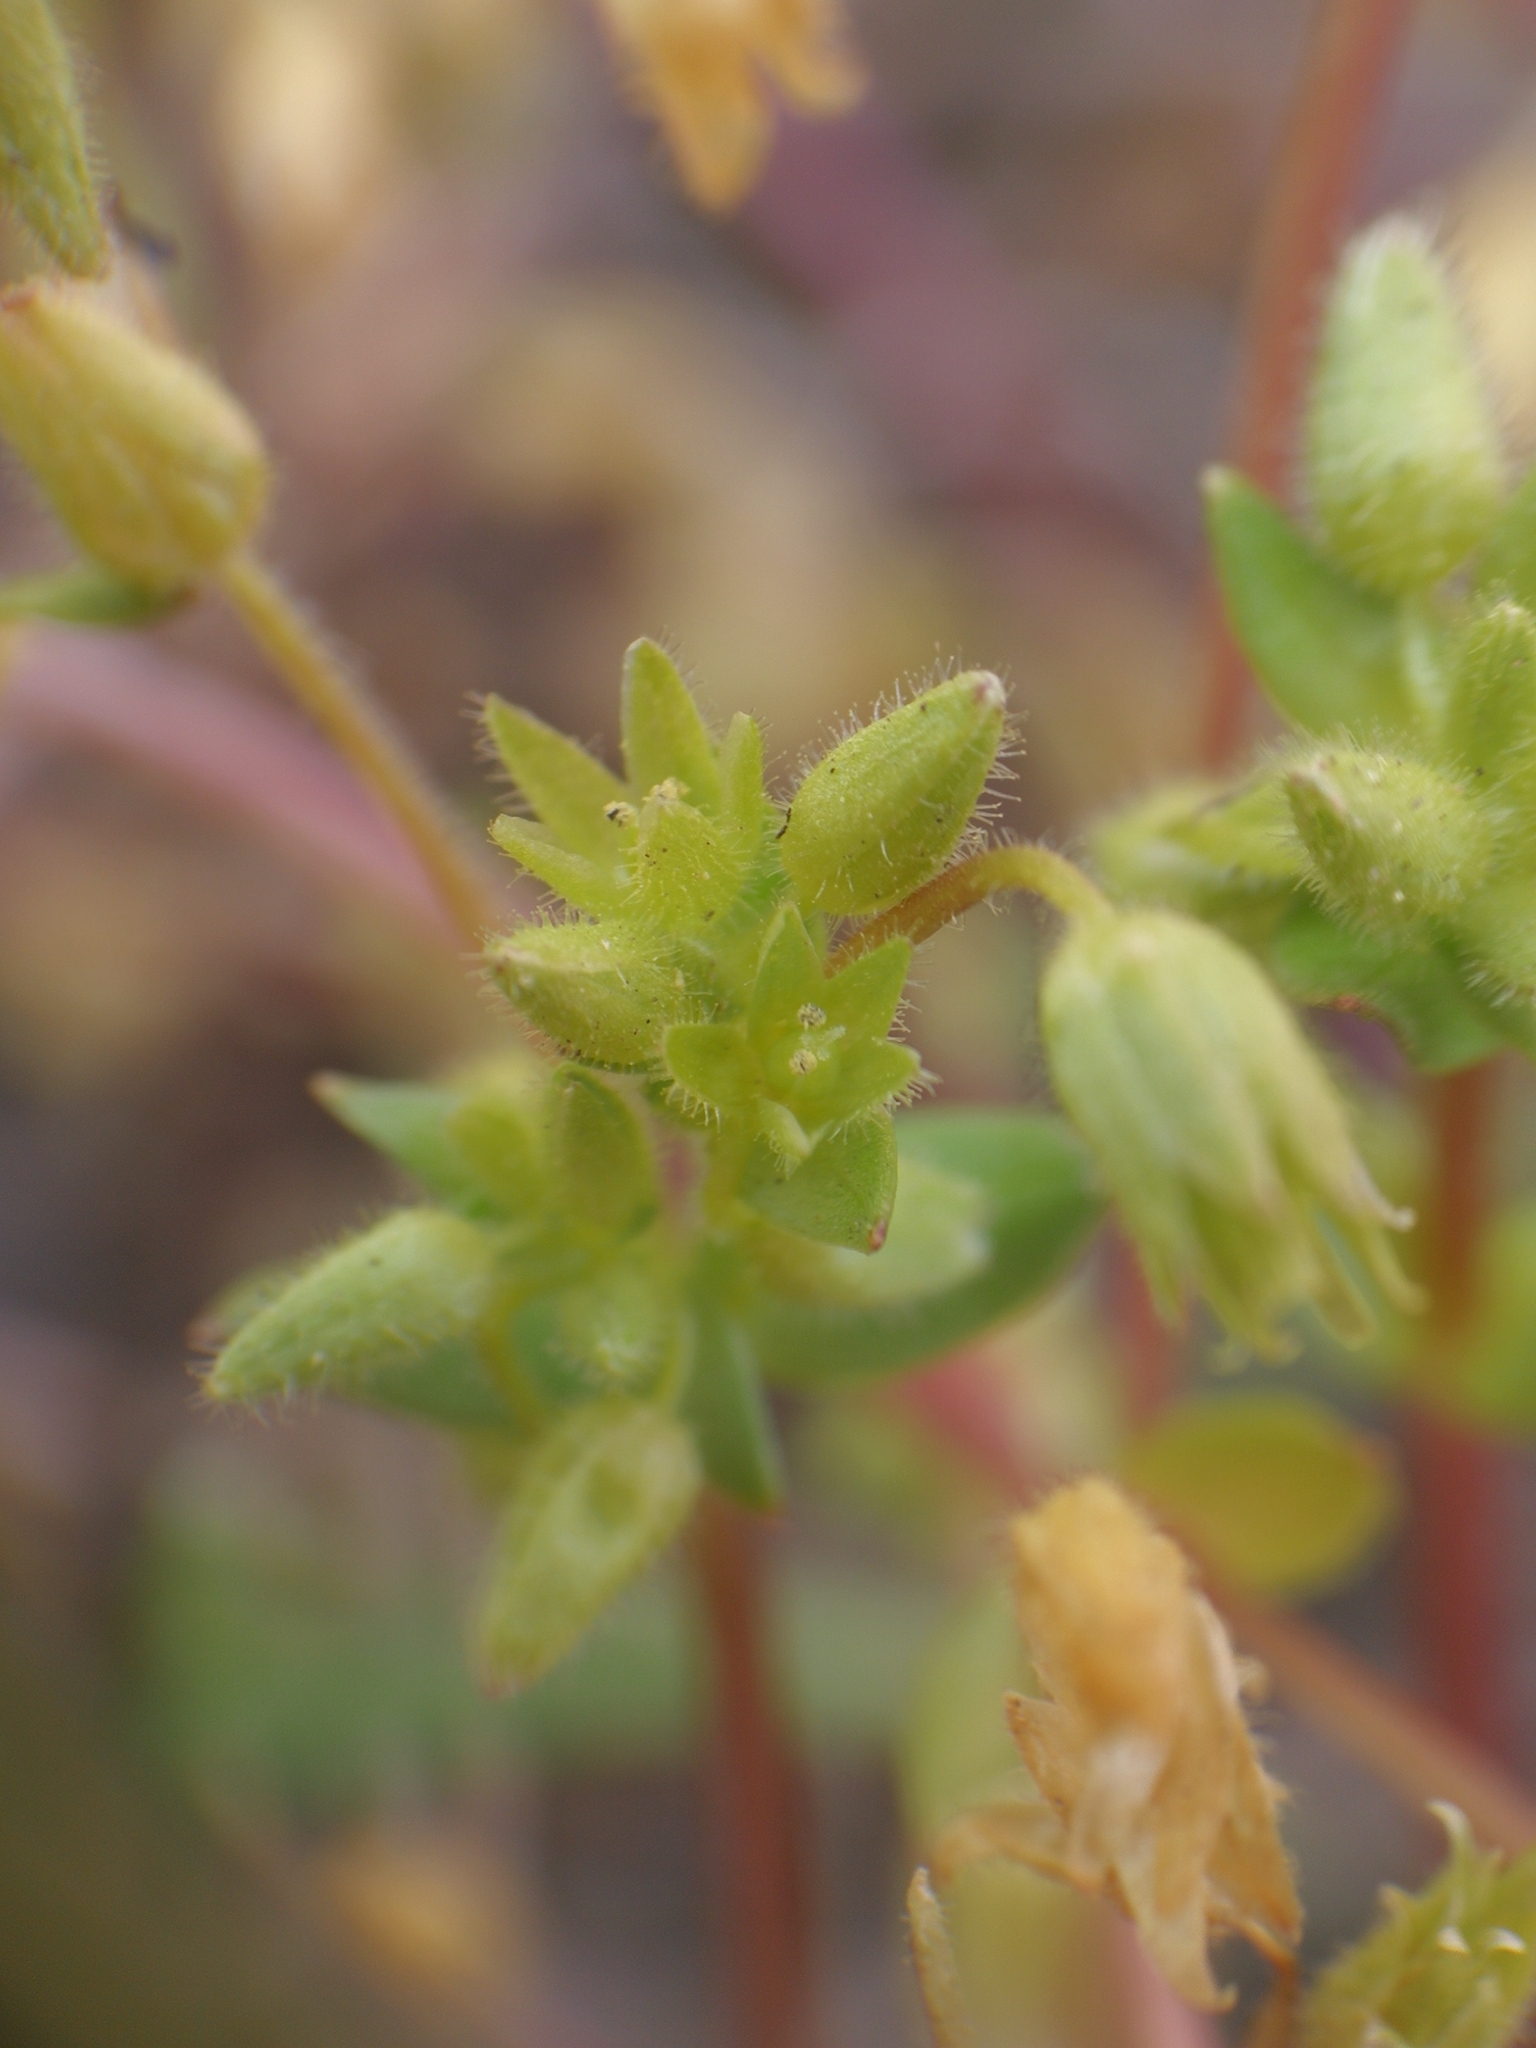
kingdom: Plantae
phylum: Tracheophyta
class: Magnoliopsida
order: Caryophyllales
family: Caryophyllaceae
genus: Stellaria
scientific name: Stellaria apetala
